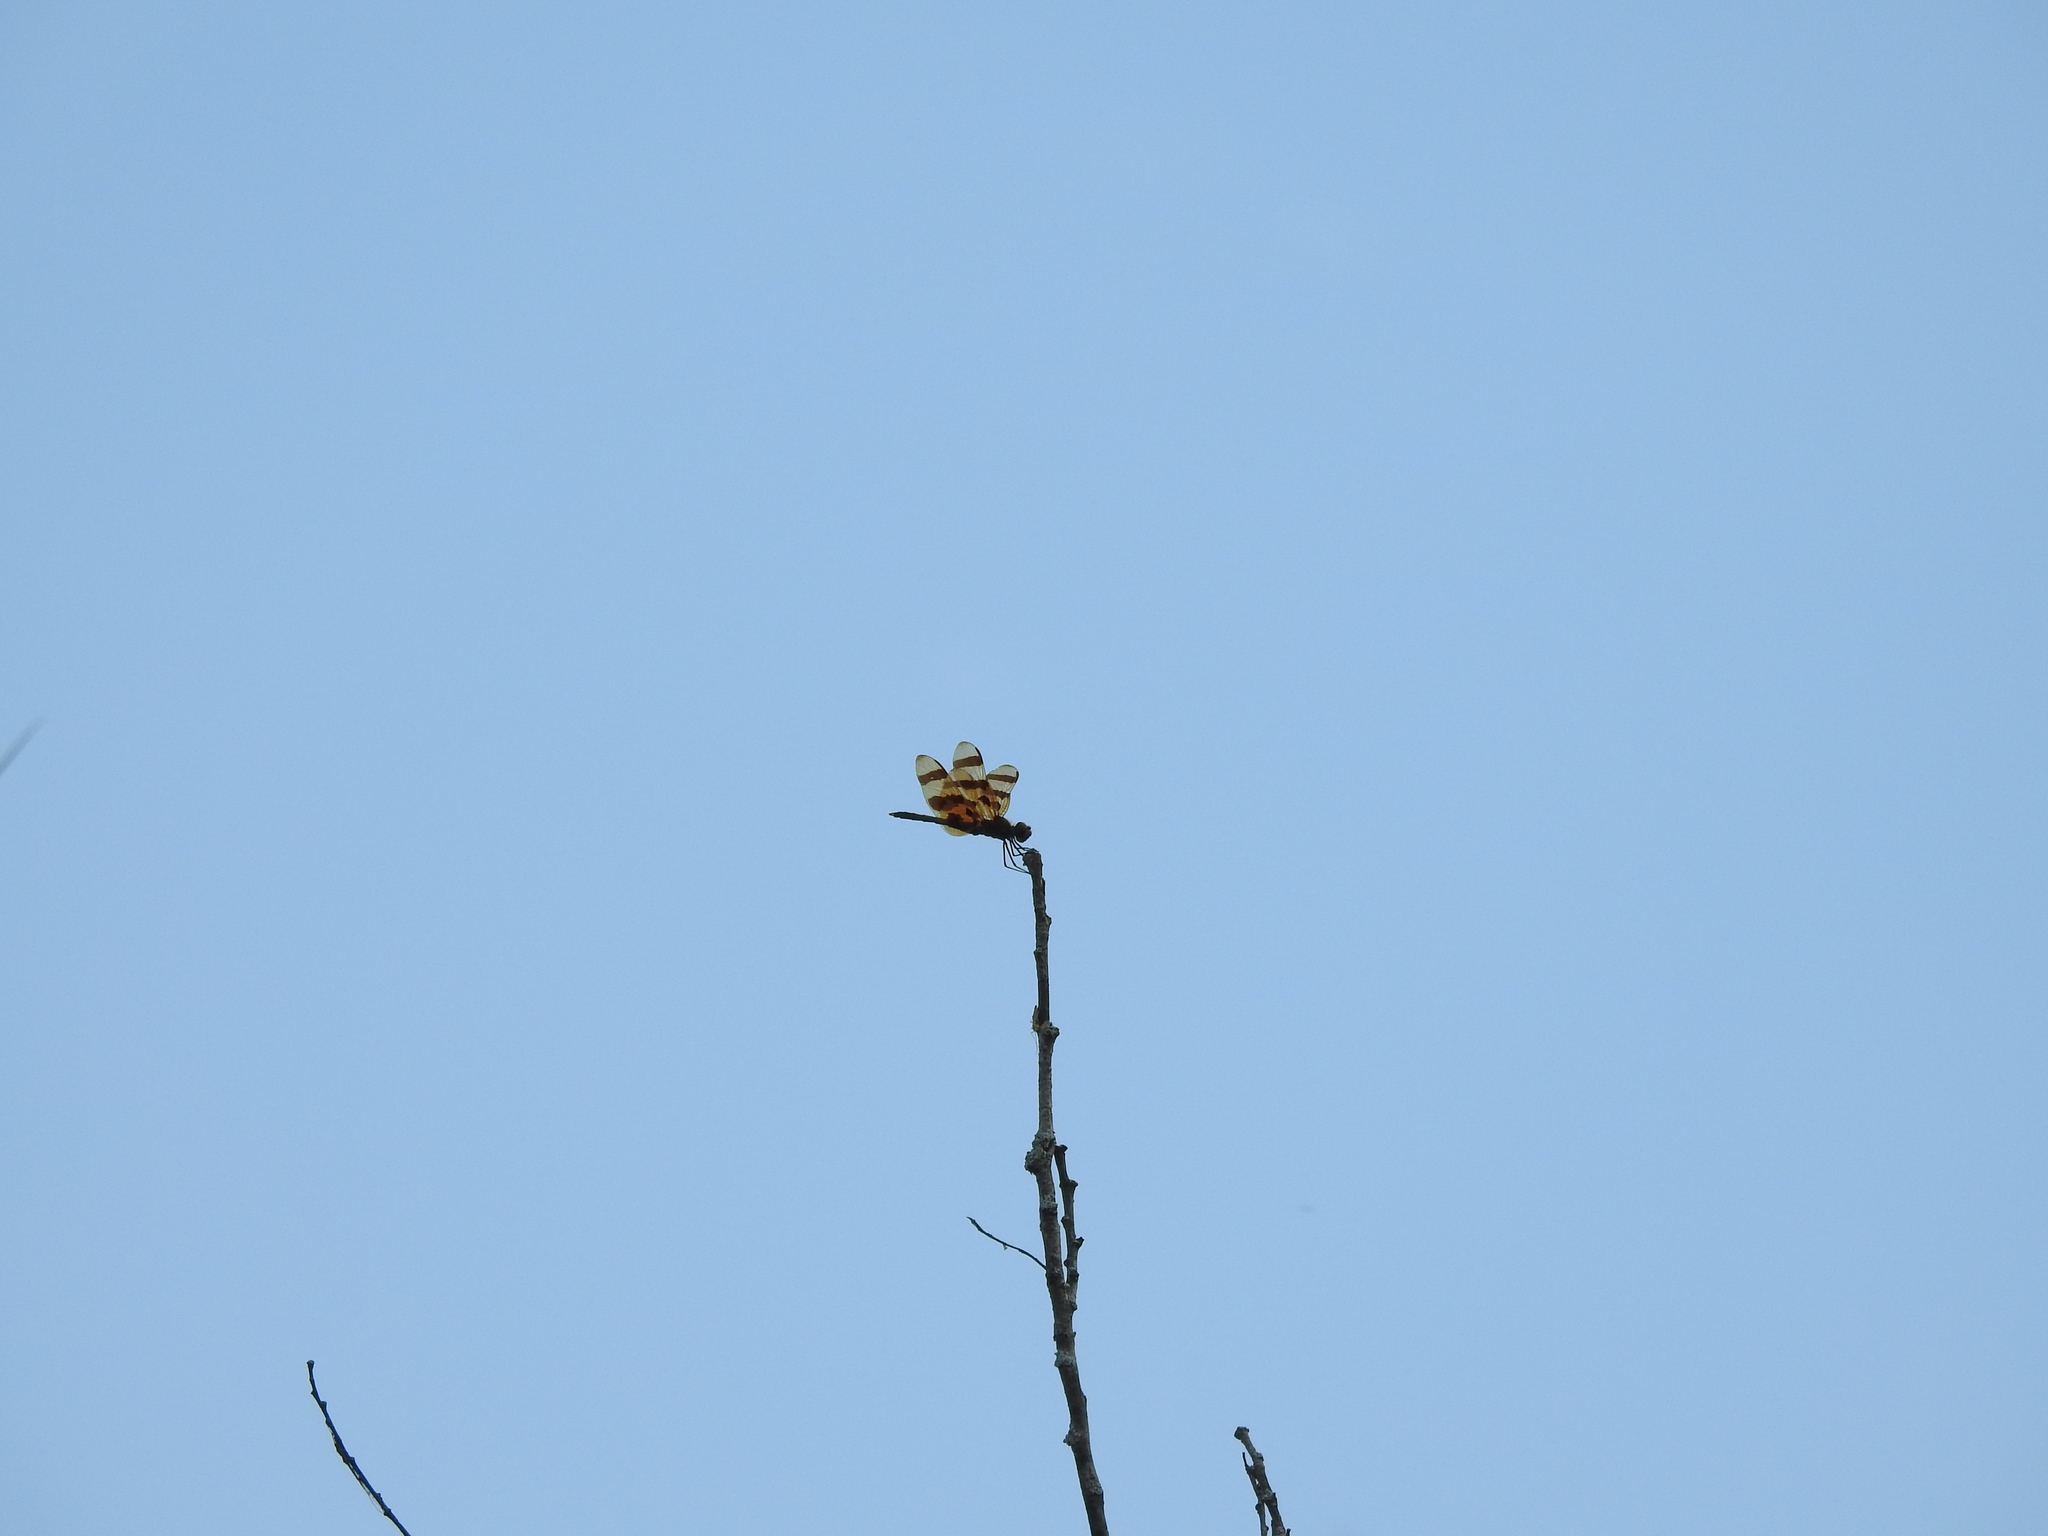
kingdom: Animalia
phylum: Arthropoda
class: Insecta
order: Odonata
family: Libellulidae
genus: Celithemis
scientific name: Celithemis eponina
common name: Halloween pennant
